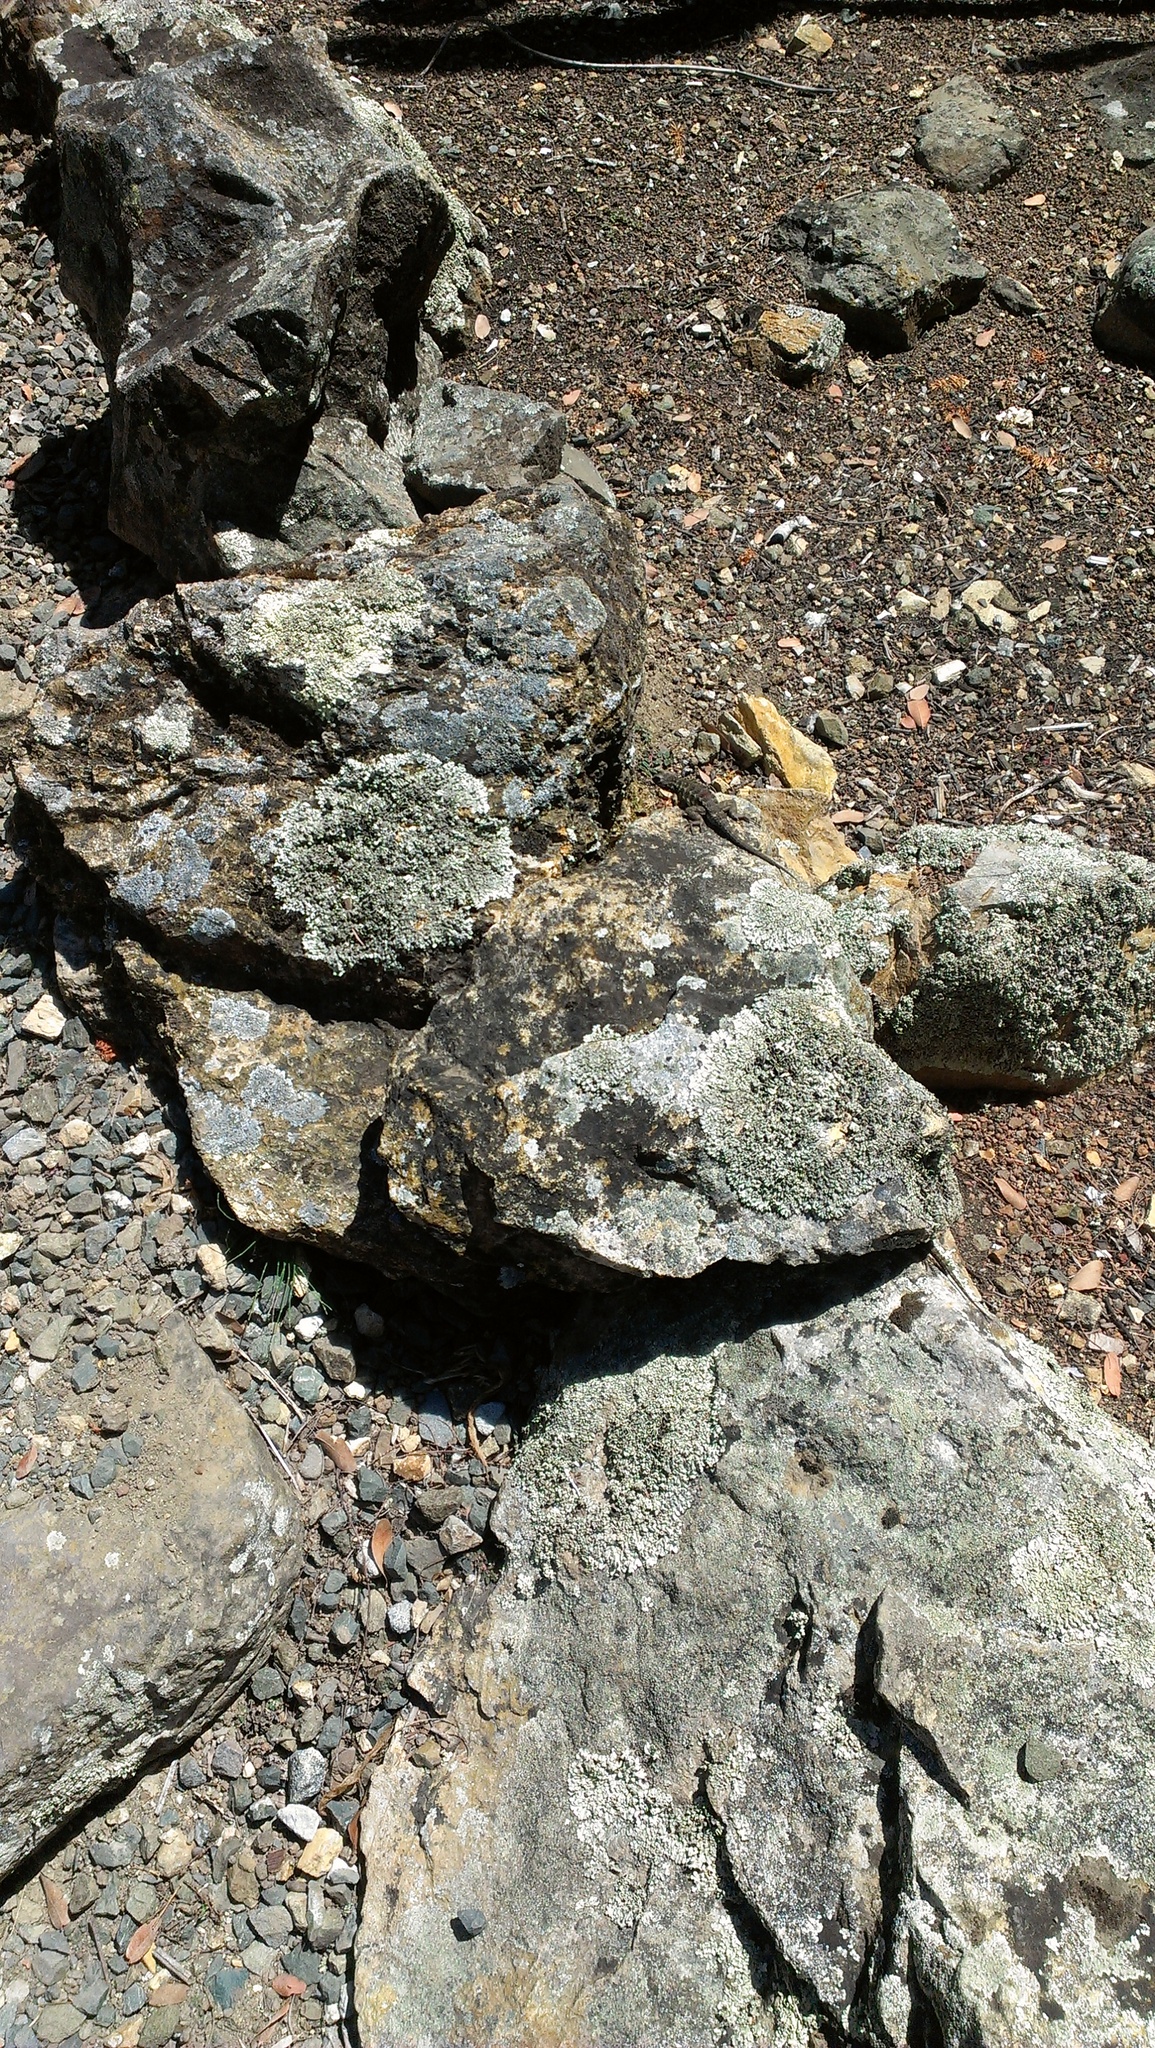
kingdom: Animalia
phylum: Chordata
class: Squamata
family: Phrynosomatidae
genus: Sceloporus
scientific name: Sceloporus occidentalis
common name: Western fence lizard
